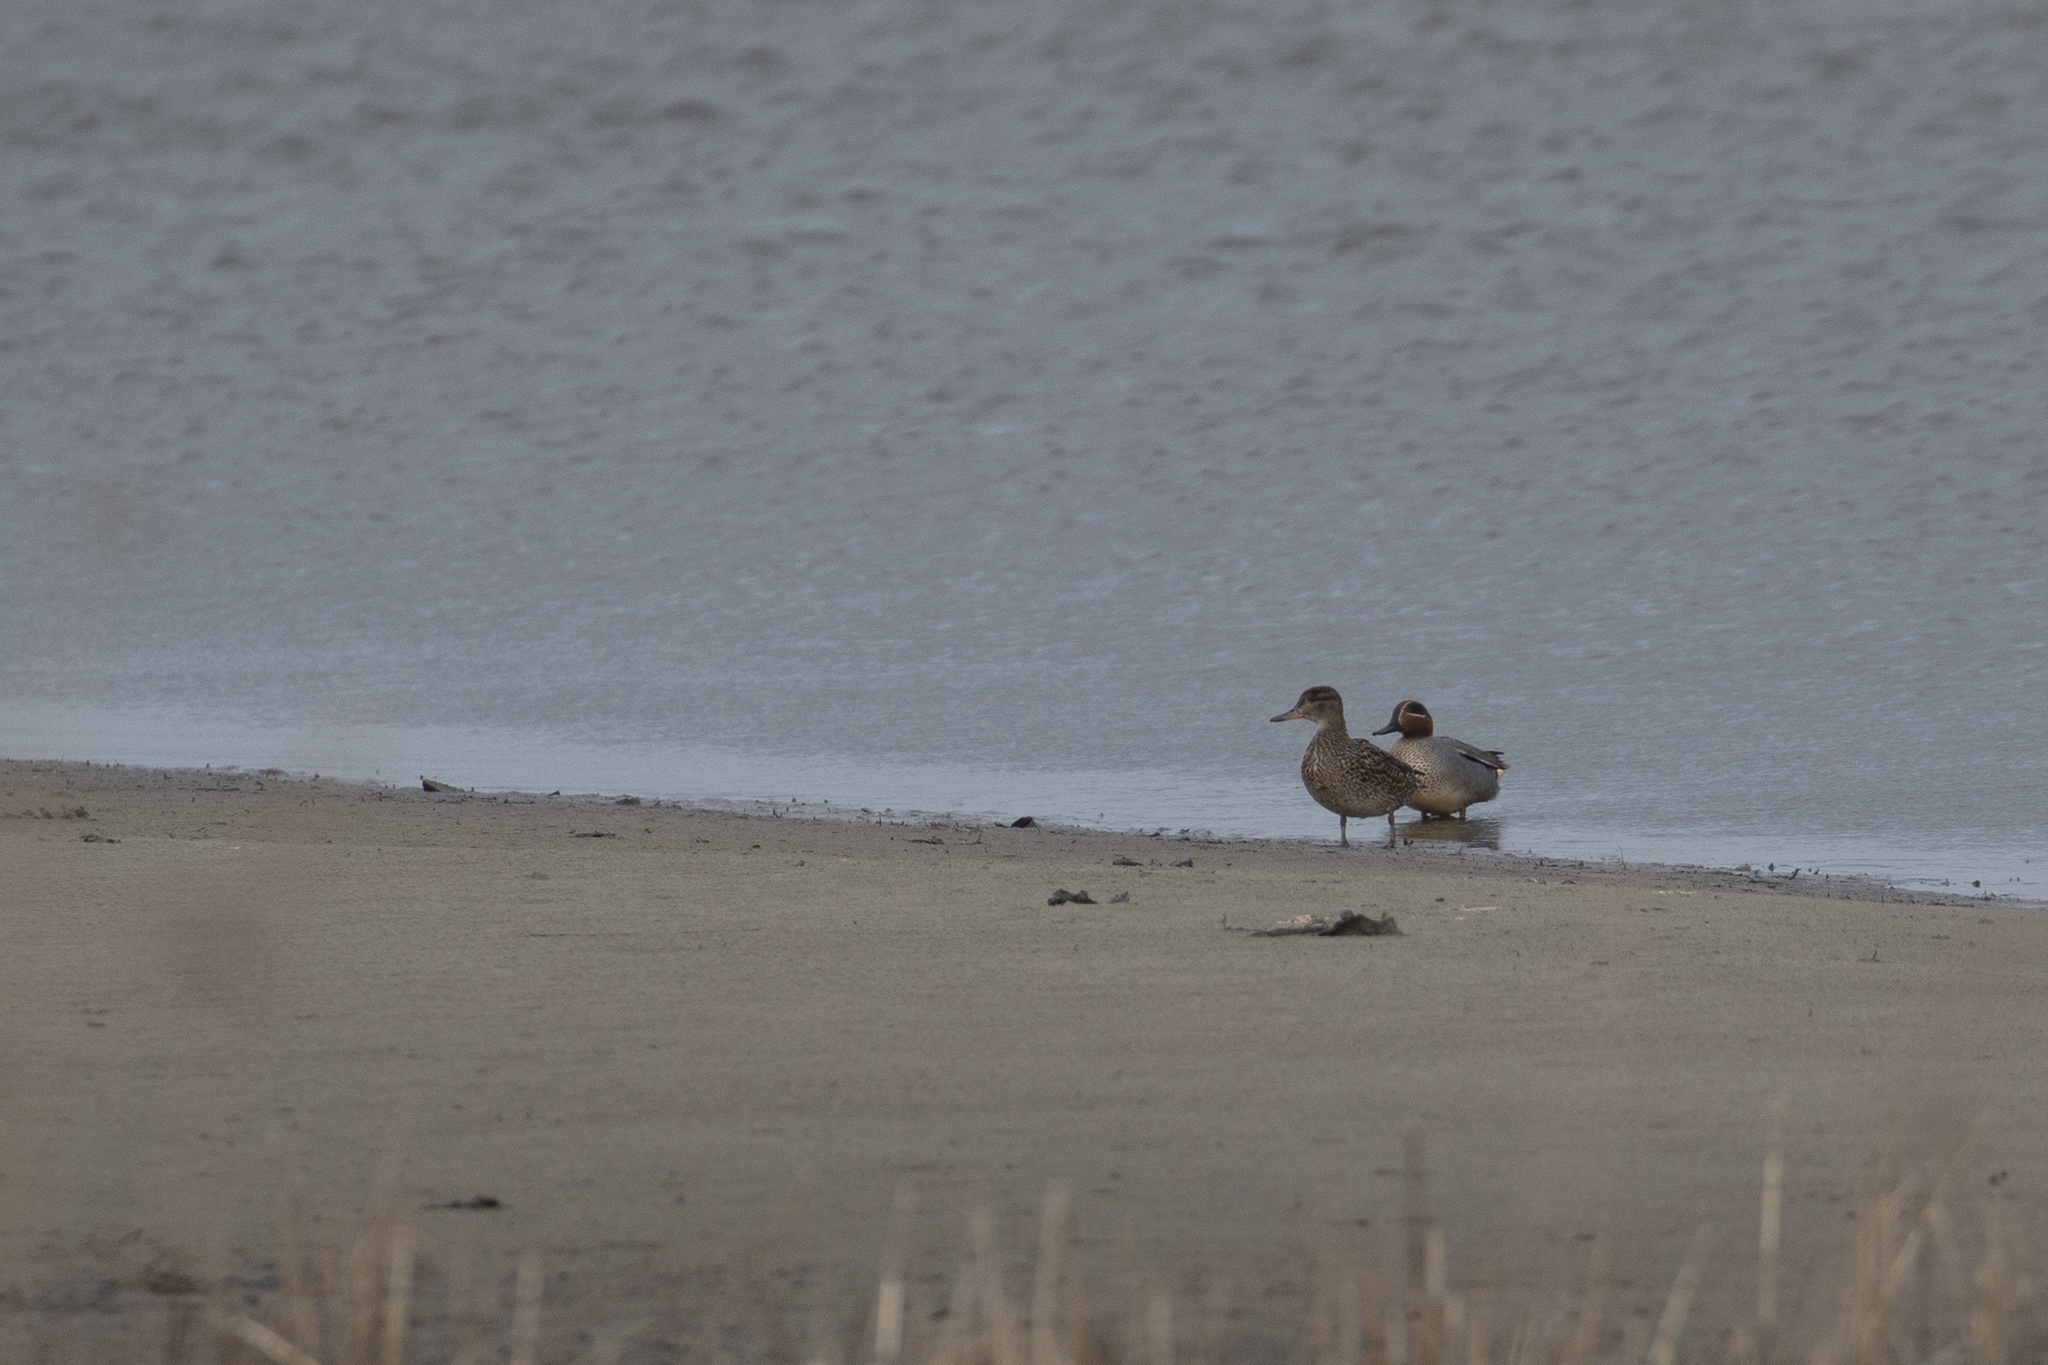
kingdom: Animalia
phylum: Chordata
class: Aves
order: Anseriformes
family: Anatidae
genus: Anas
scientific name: Anas crecca
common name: Eurasian teal
